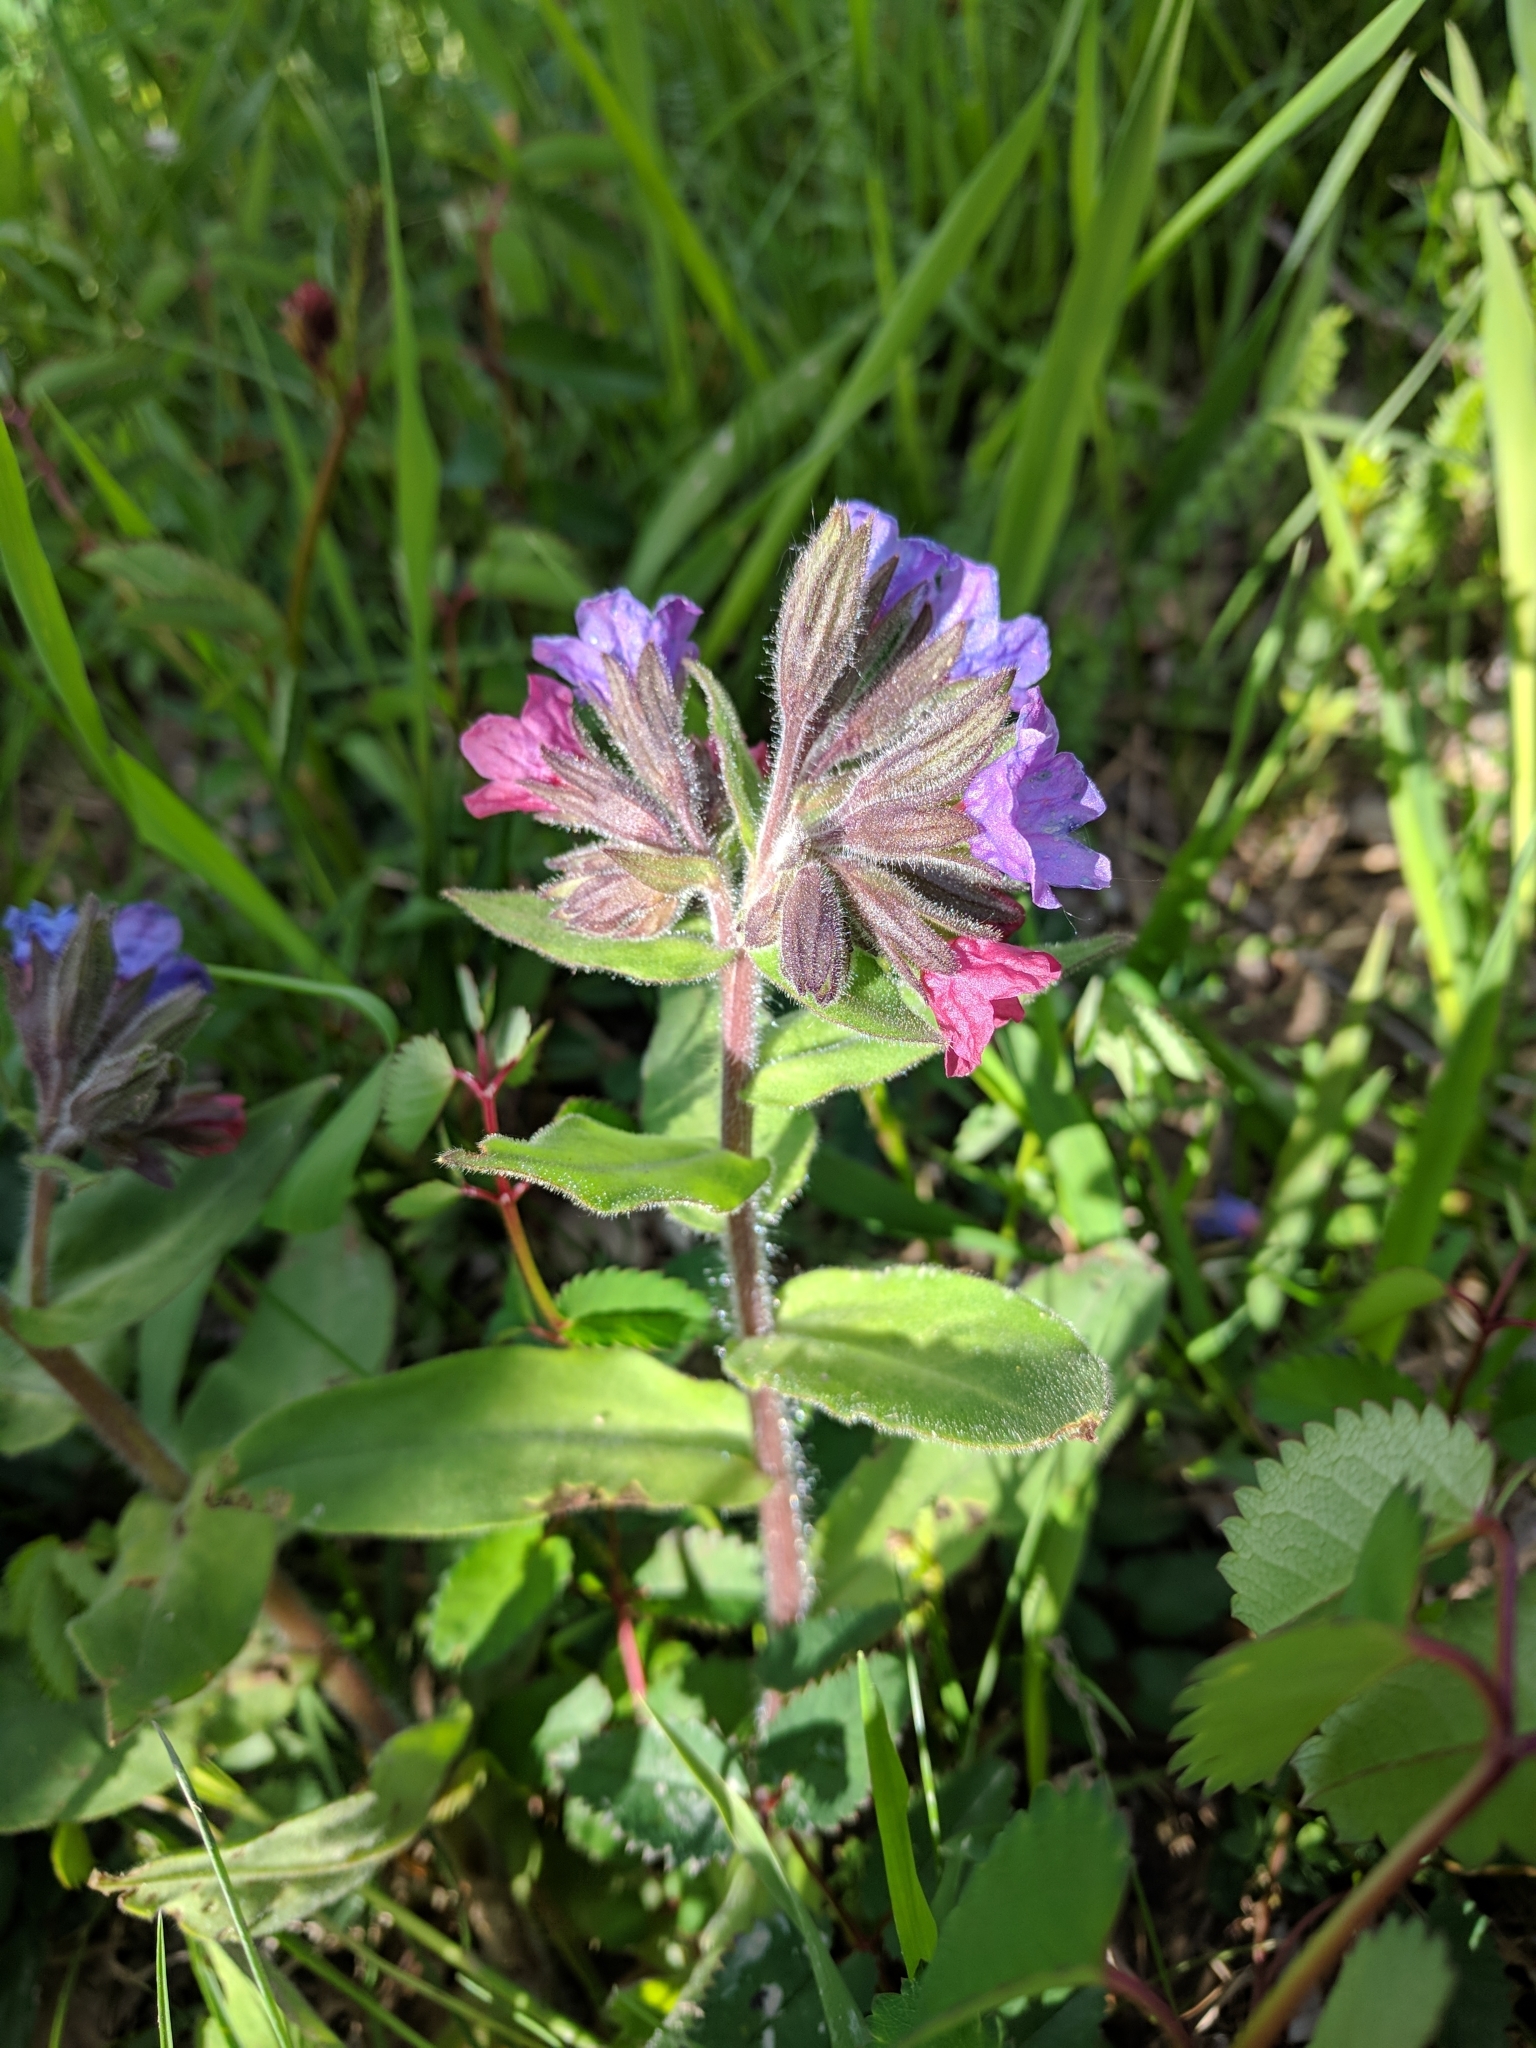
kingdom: Plantae
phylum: Tracheophyta
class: Magnoliopsida
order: Boraginales
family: Boraginaceae
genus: Pulmonaria
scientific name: Pulmonaria obscura
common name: Suffolk lungwort
